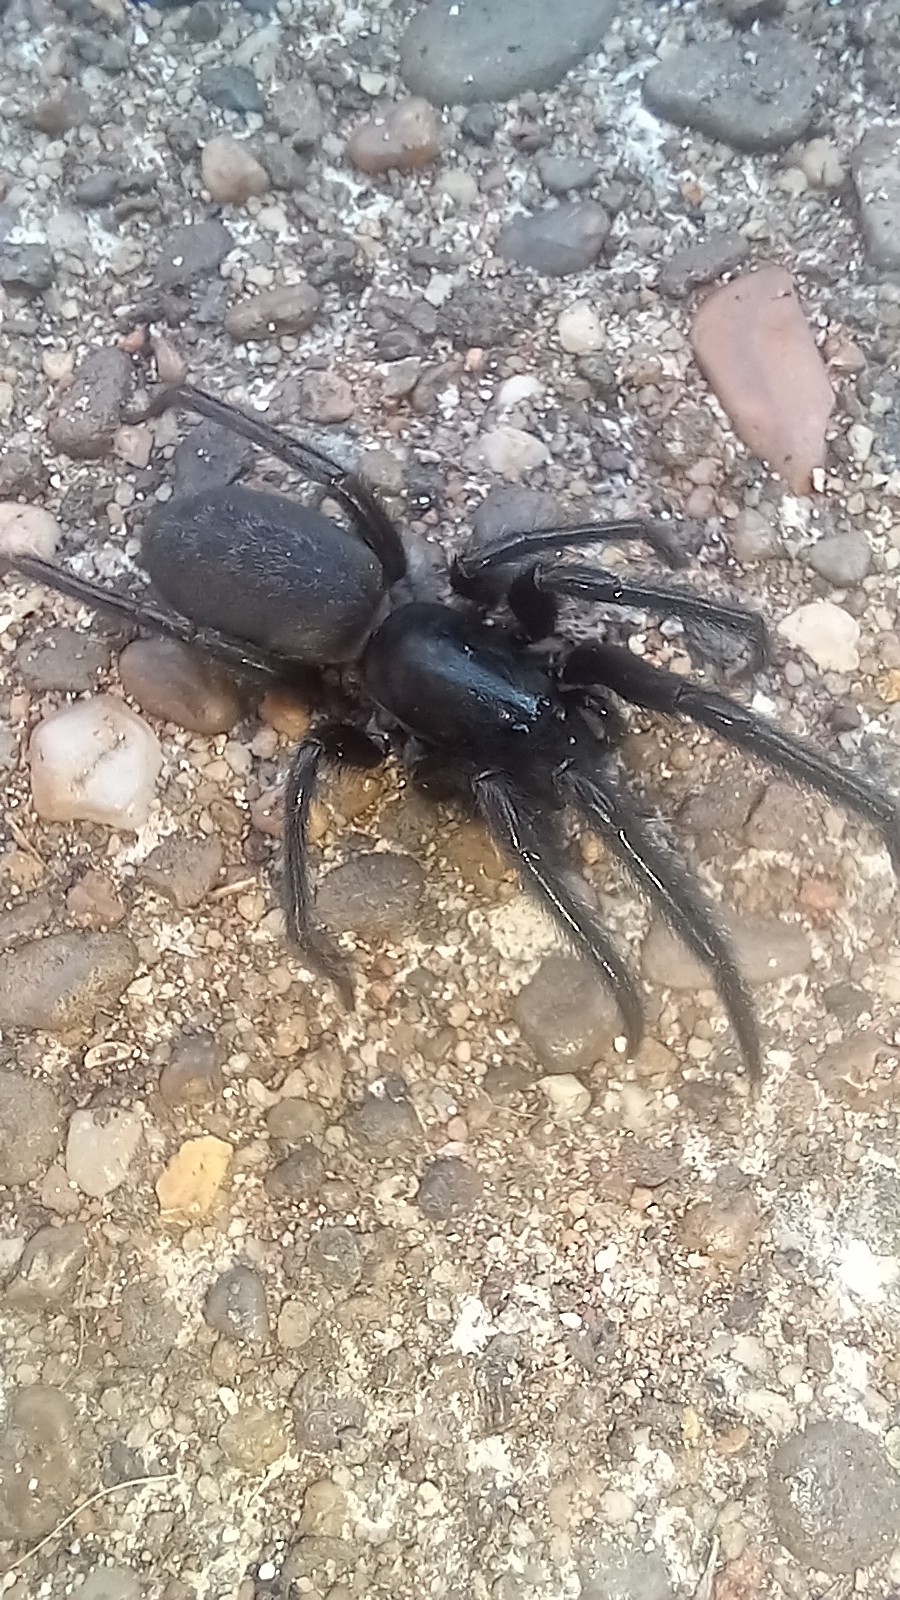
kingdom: Animalia
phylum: Arthropoda
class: Arachnida
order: Araneae
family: Segestriidae
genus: Segestria
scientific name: Segestria florentina
